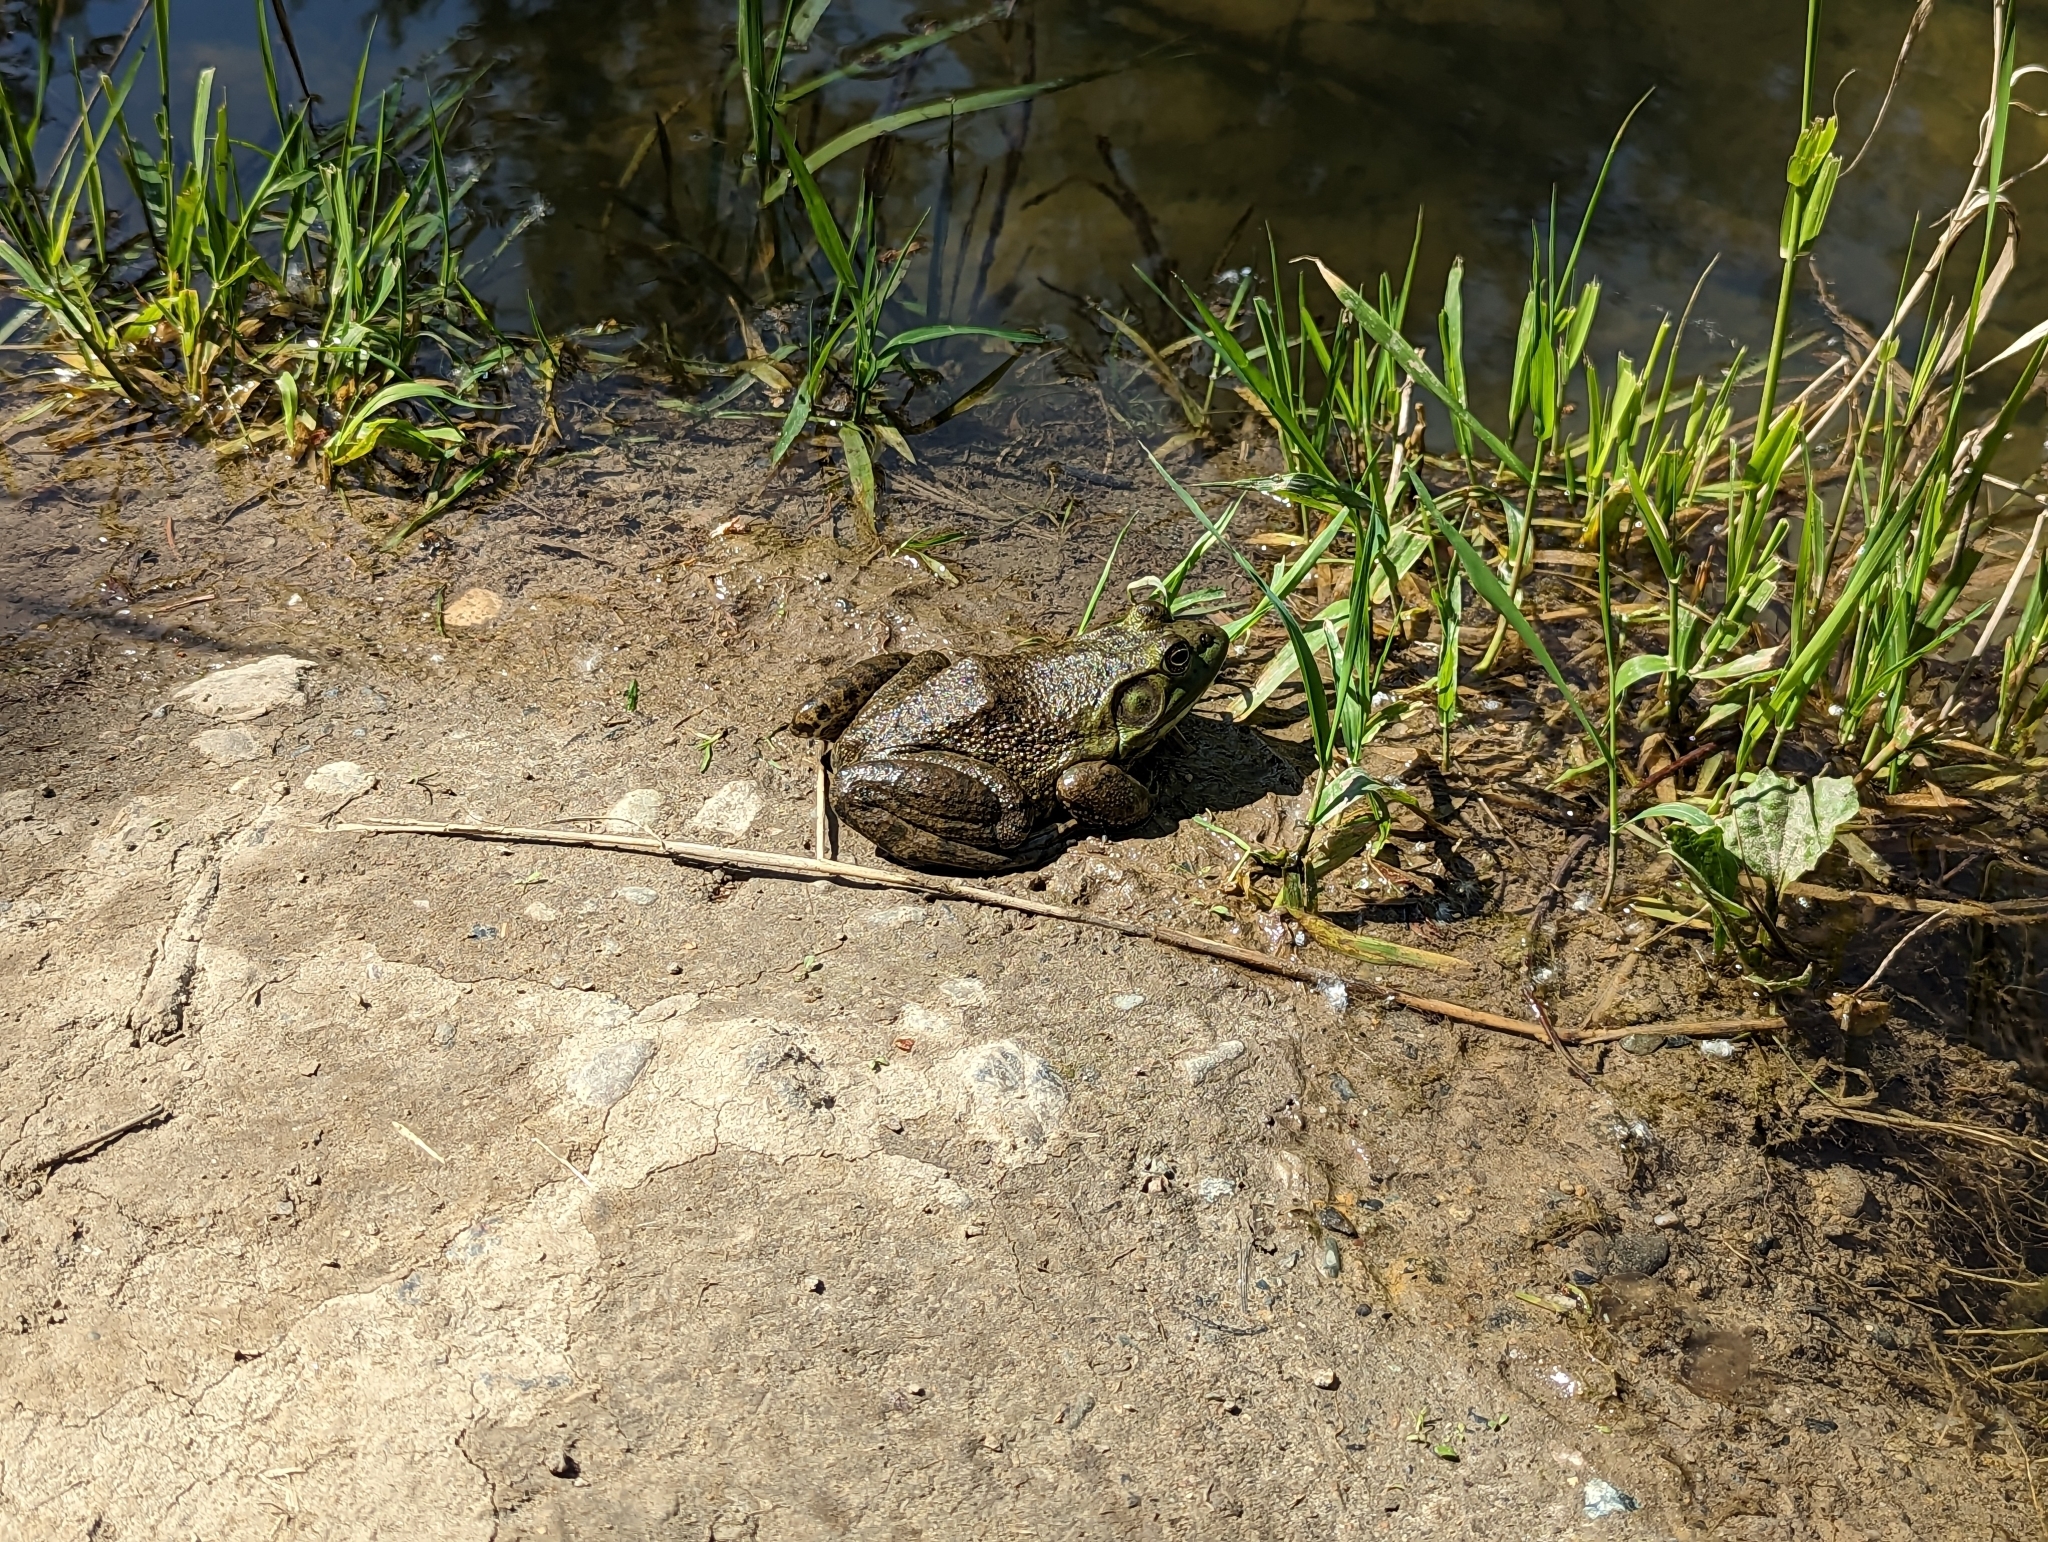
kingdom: Animalia
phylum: Chordata
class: Amphibia
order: Anura
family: Ranidae
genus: Lithobates
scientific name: Lithobates catesbeianus
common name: American bullfrog
